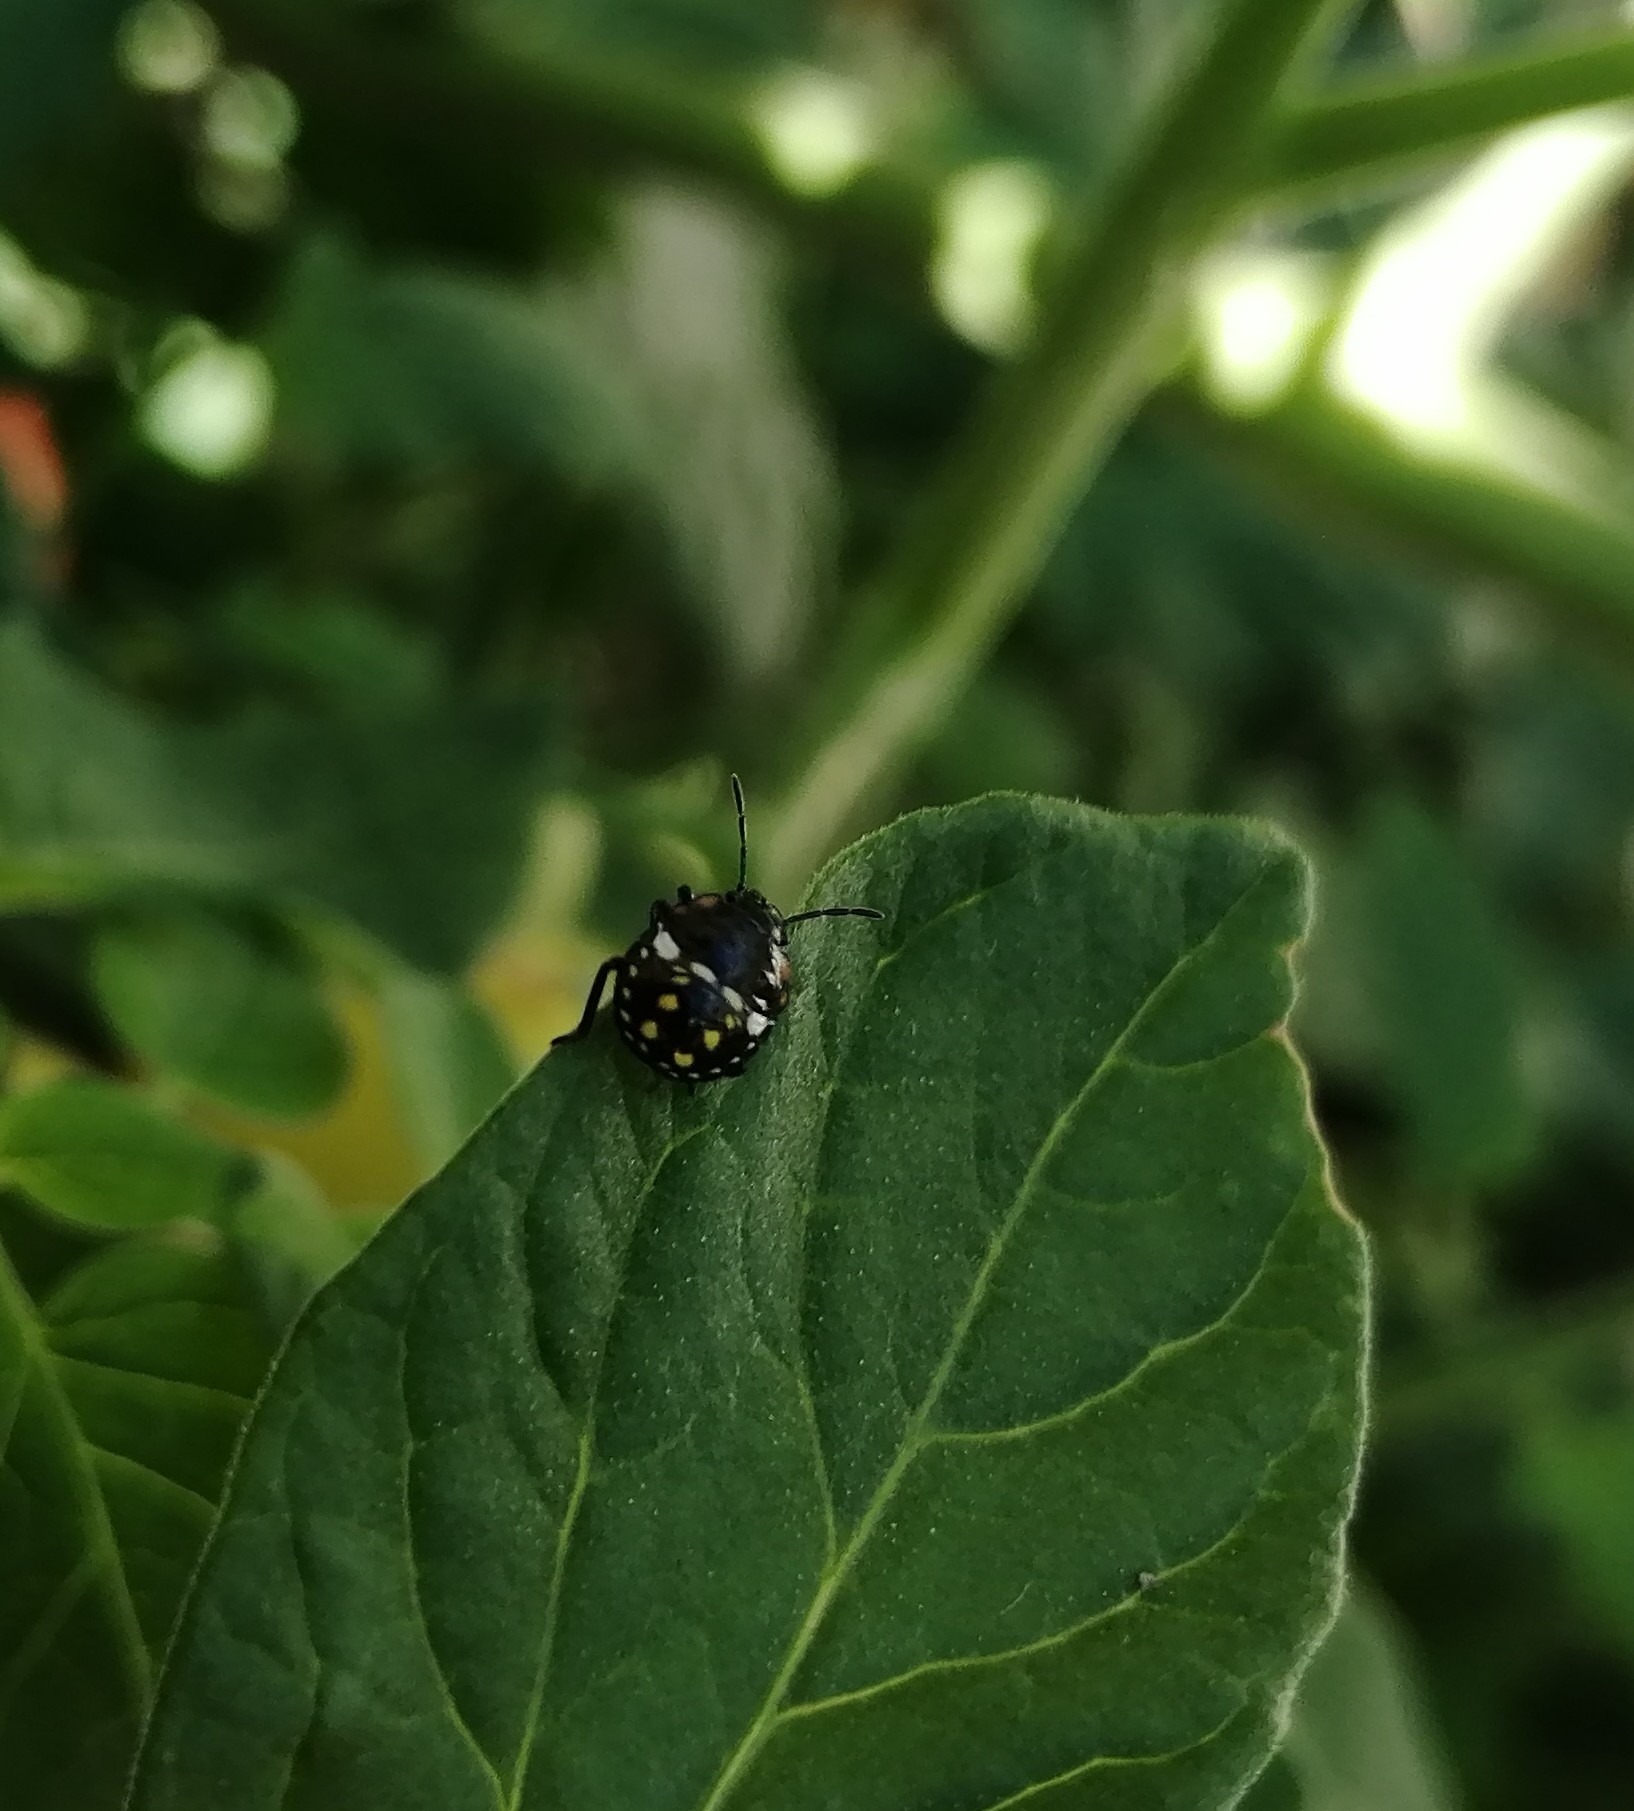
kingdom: Animalia
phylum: Arthropoda
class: Insecta
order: Hemiptera
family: Pentatomidae
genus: Nezara
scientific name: Nezara viridula
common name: Southern green stink bug
